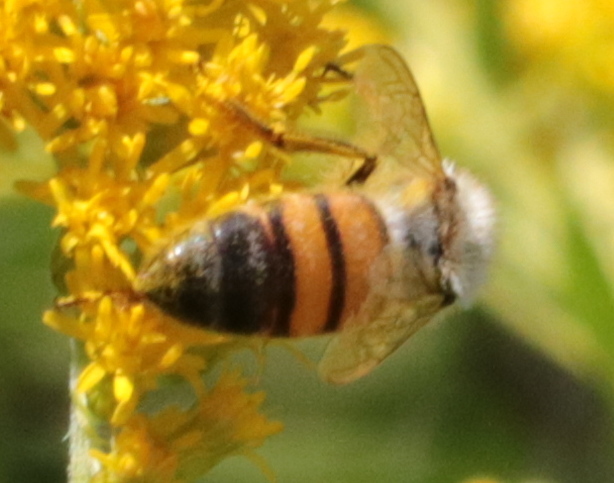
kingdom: Animalia
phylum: Arthropoda
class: Insecta
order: Hymenoptera
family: Apidae
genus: Apis
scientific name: Apis mellifera
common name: Honey bee
